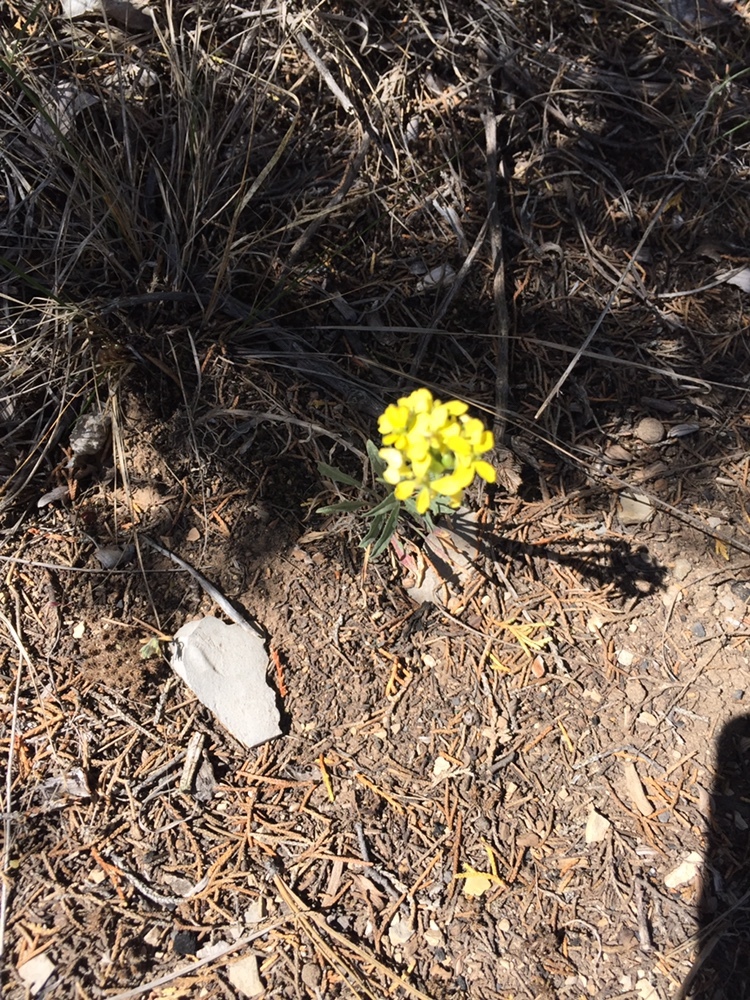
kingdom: Plantae
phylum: Tracheophyta
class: Magnoliopsida
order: Brassicales
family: Brassicaceae
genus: Erysimum
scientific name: Erysimum capitatum
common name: Western wallflower
